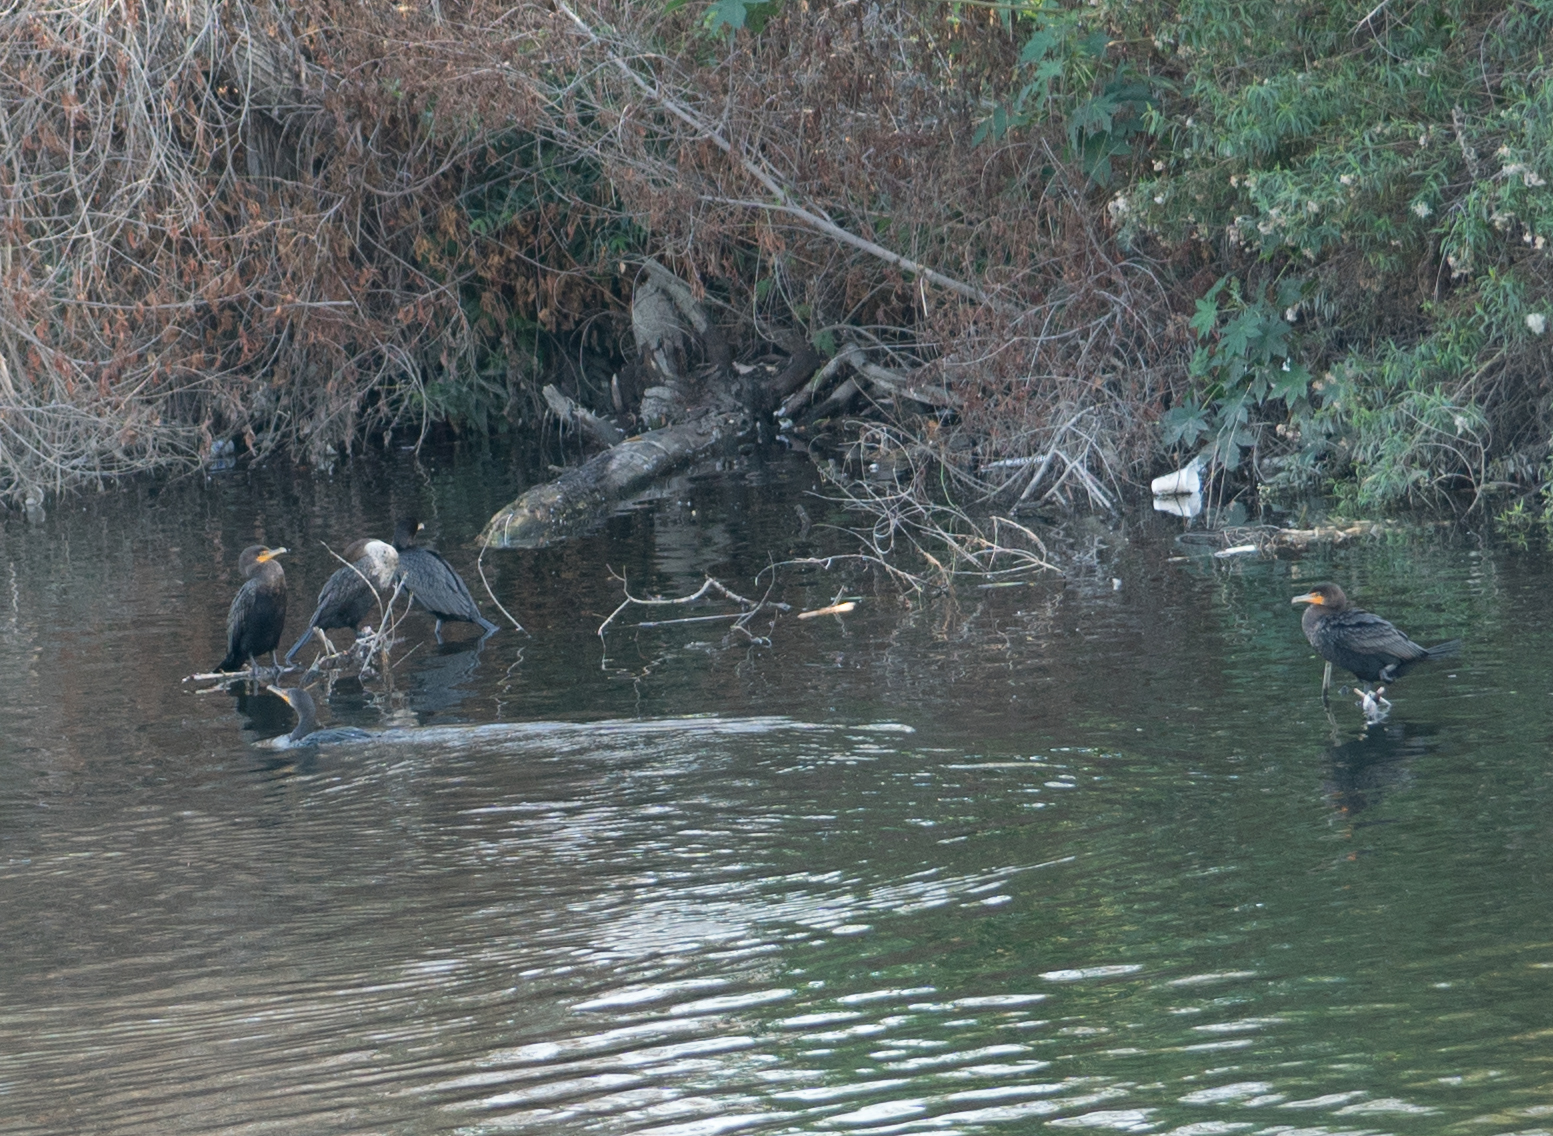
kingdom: Animalia
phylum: Chordata
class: Aves
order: Suliformes
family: Phalacrocoracidae
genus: Phalacrocorax
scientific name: Phalacrocorax auritus
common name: Double-crested cormorant
